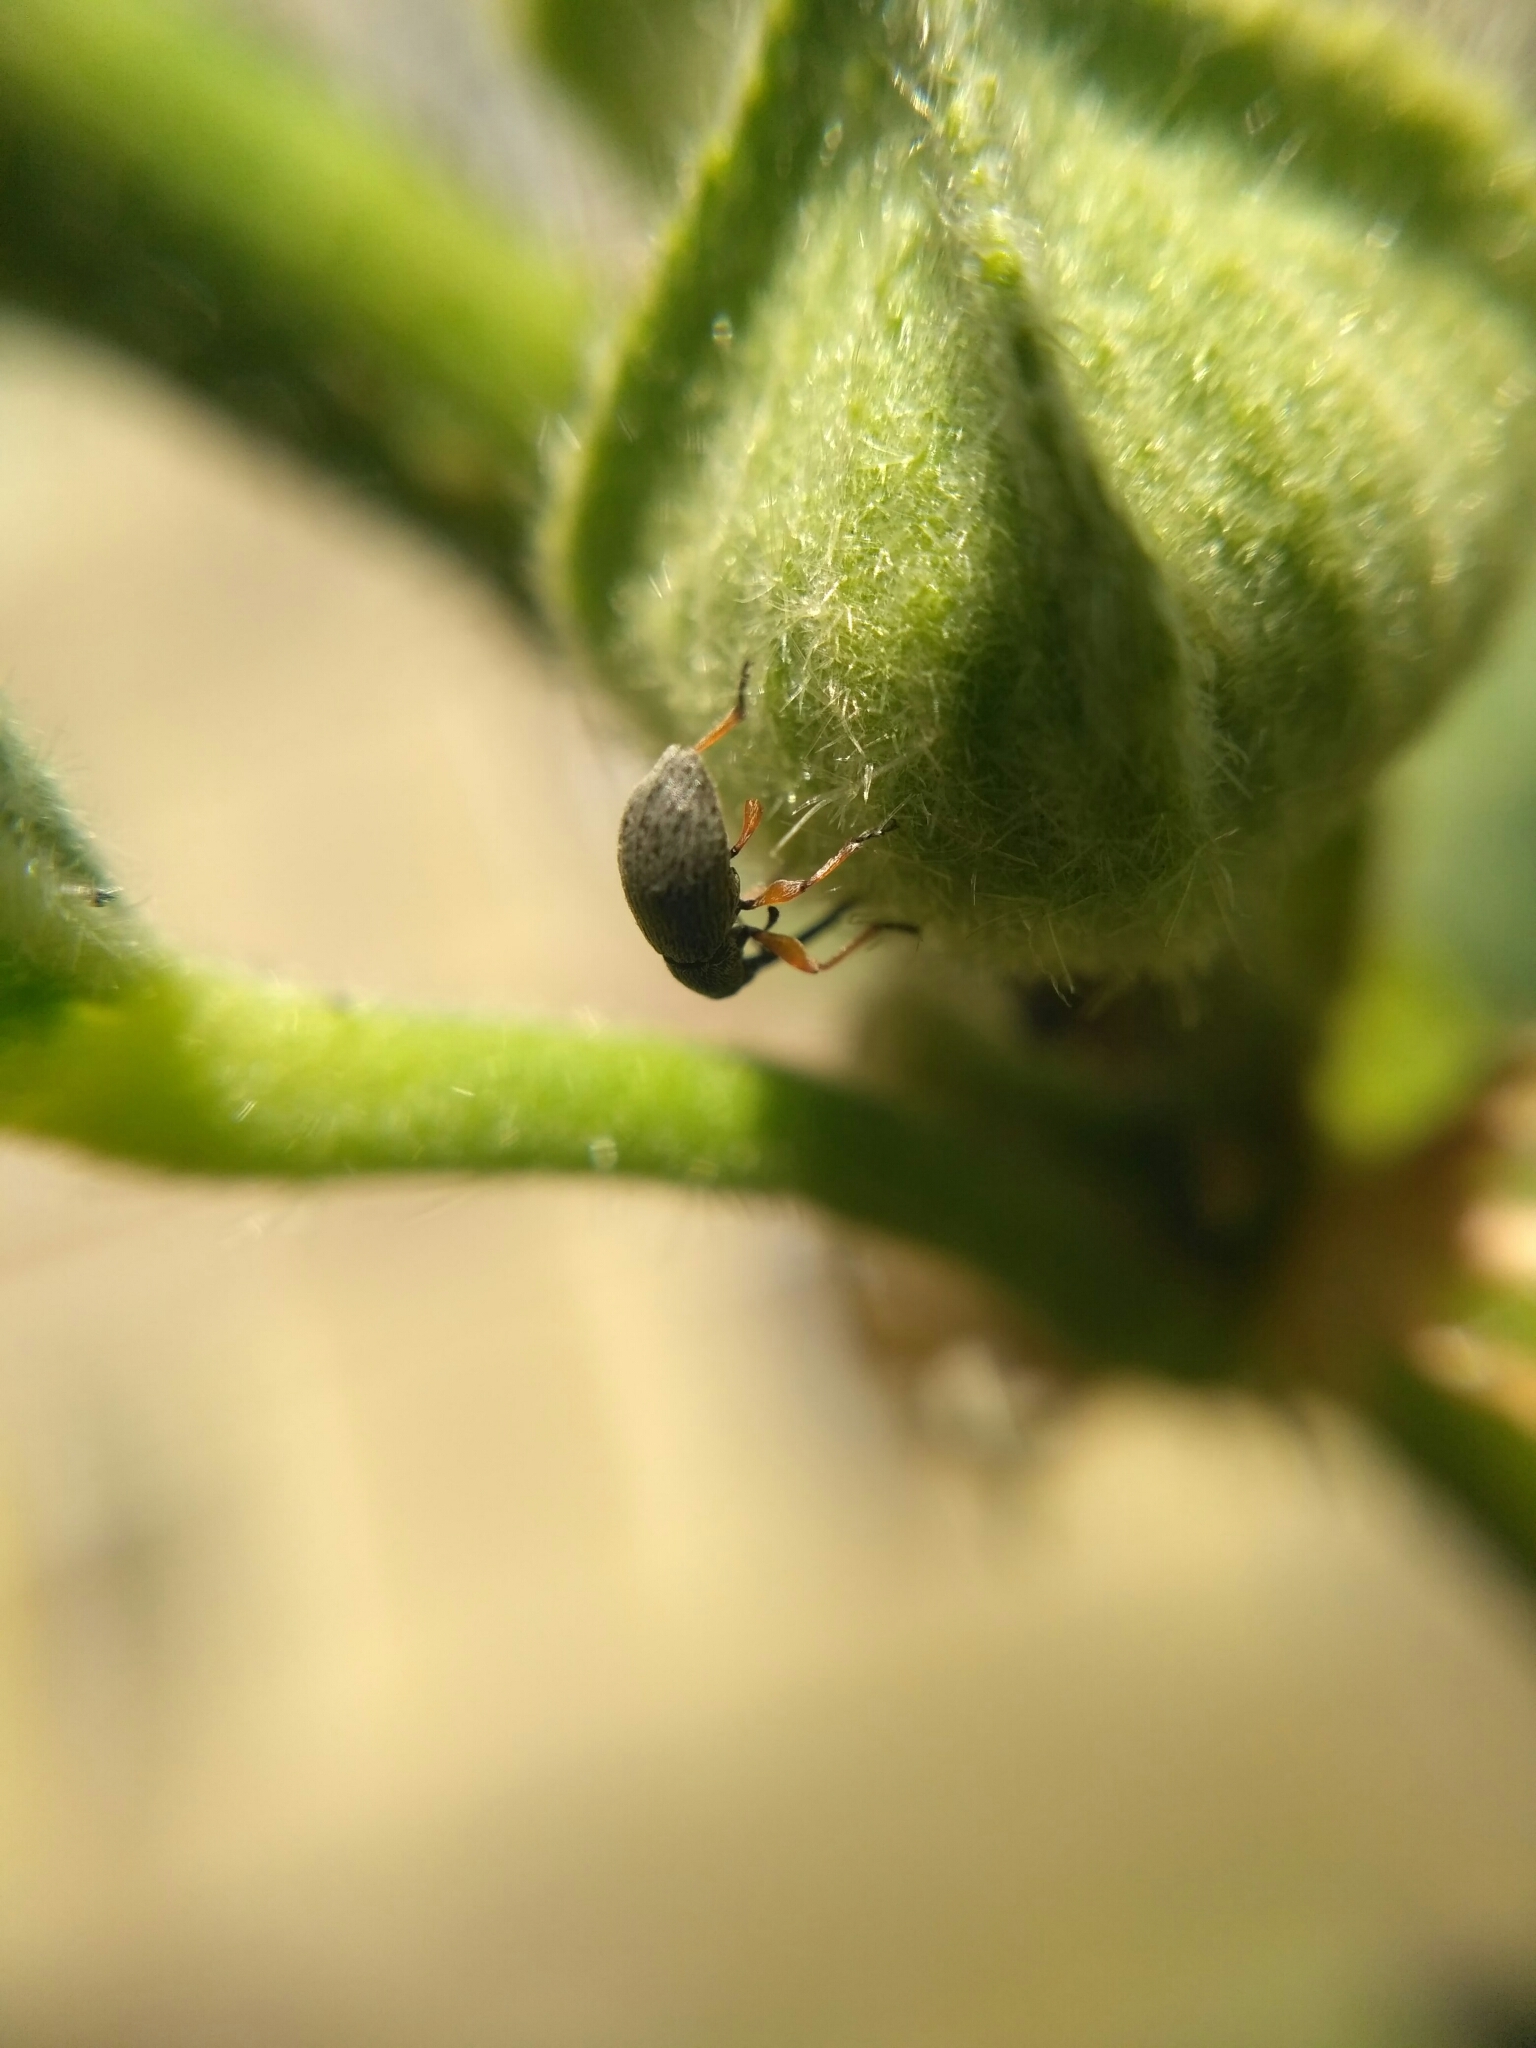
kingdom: Animalia
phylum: Arthropoda
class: Insecta
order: Coleoptera
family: Brentidae
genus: Rhopalapion
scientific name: Rhopalapion longirostre
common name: Hollyhock weevil
